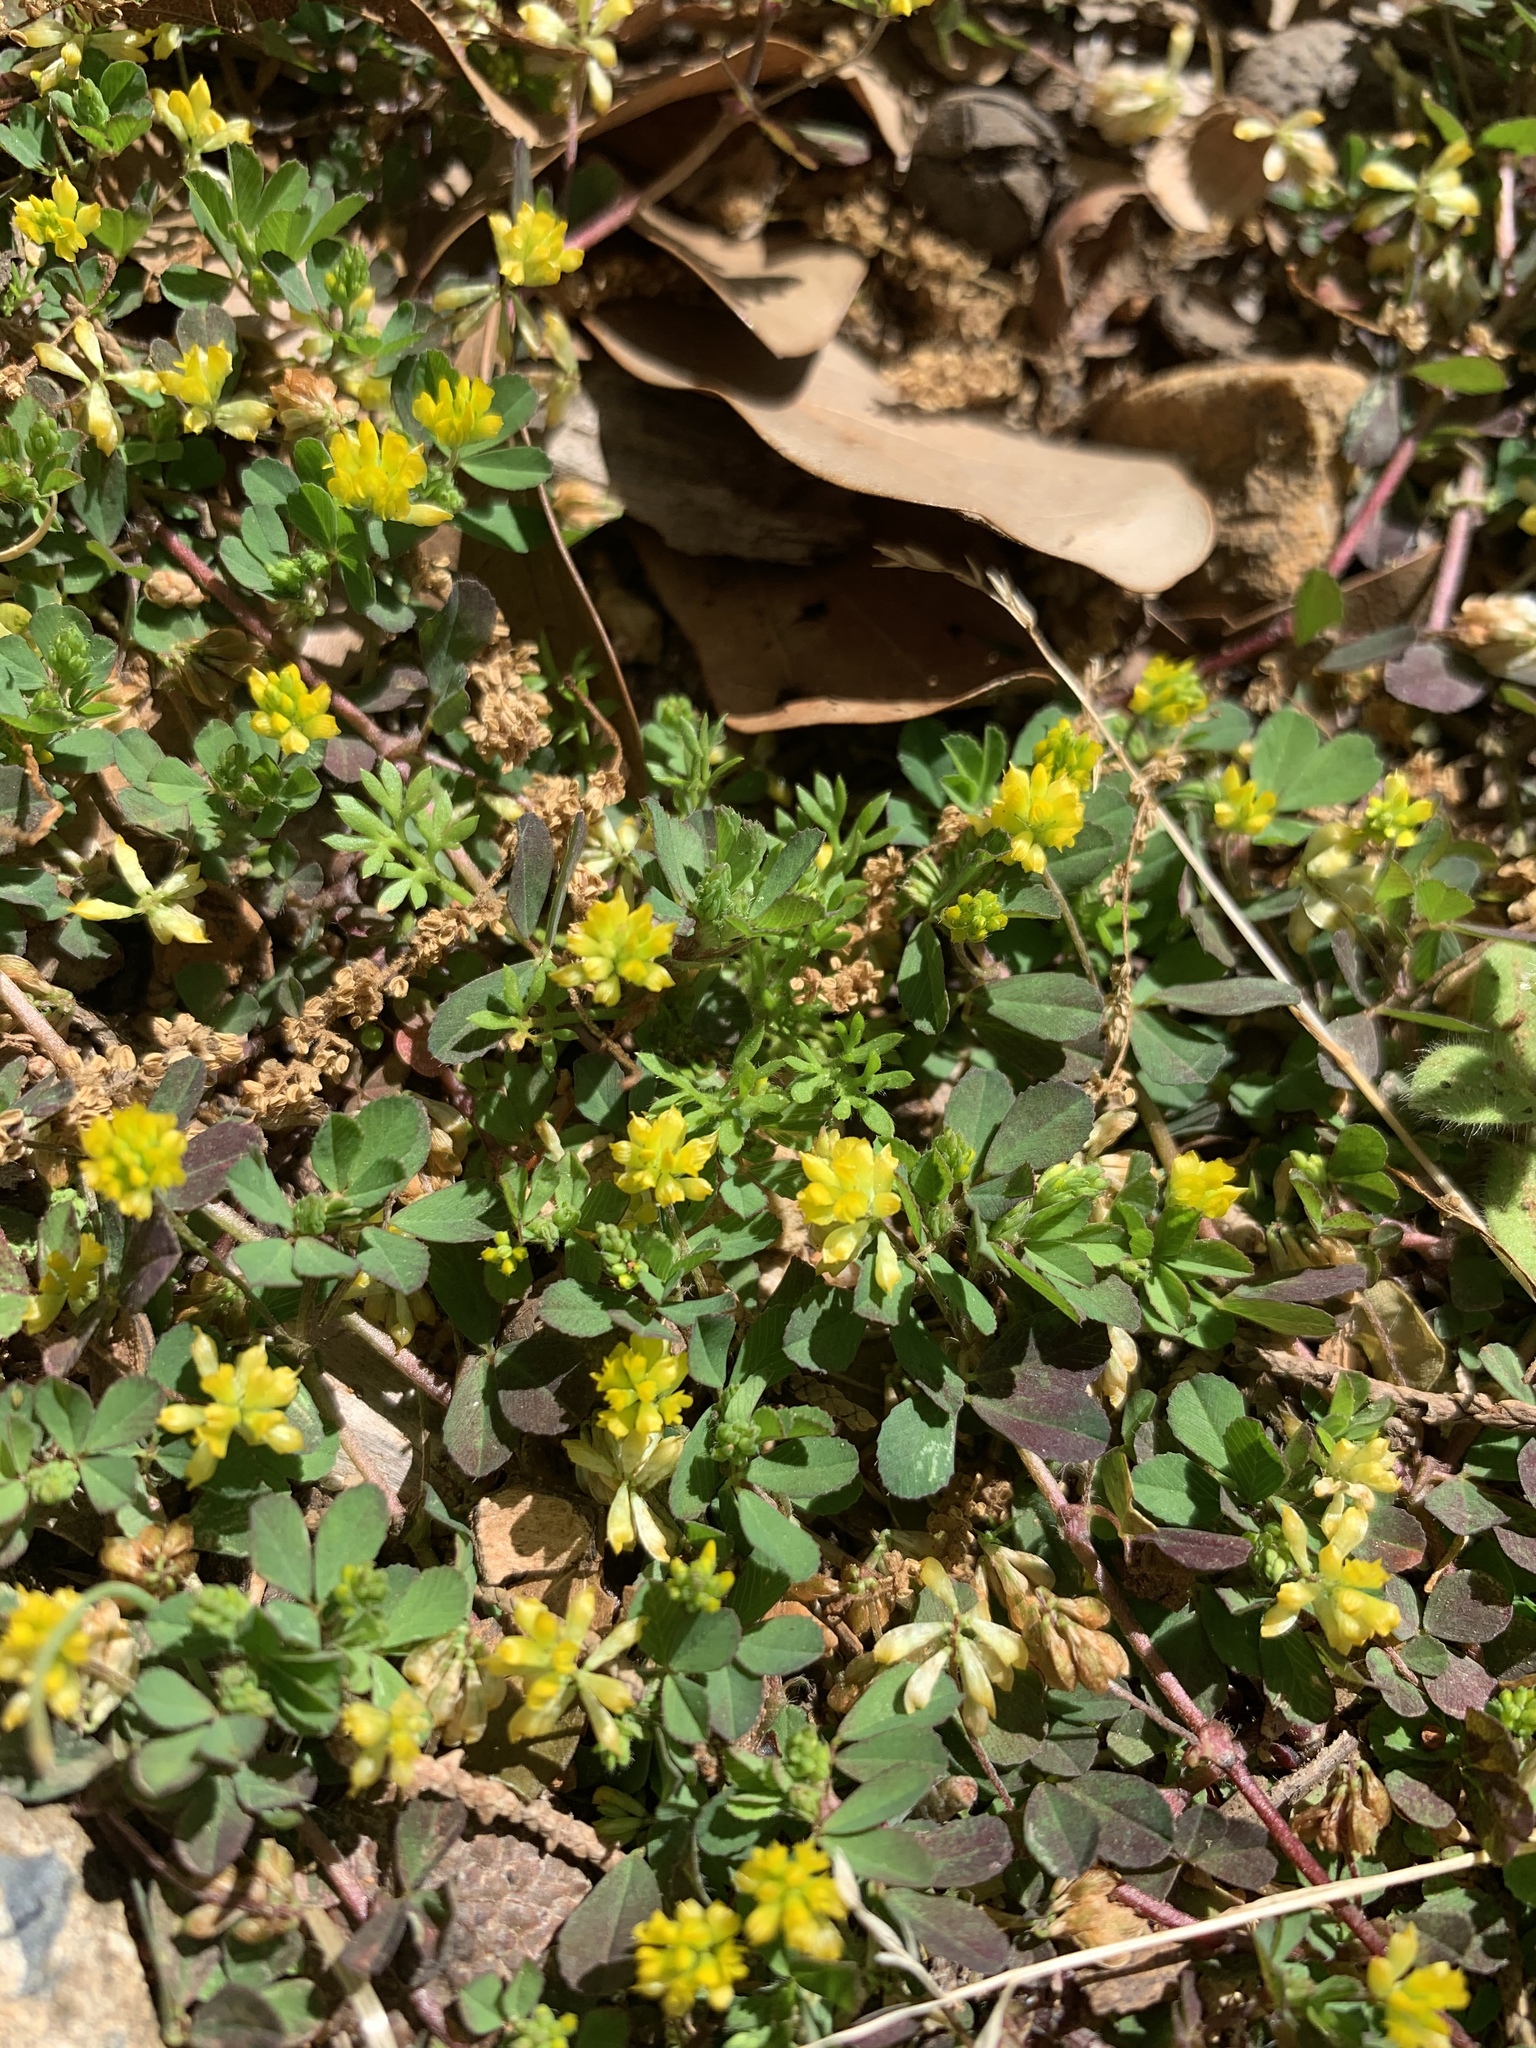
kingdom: Plantae
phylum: Tracheophyta
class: Magnoliopsida
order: Fabales
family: Fabaceae
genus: Trifolium
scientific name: Trifolium dubium
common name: Suckling clover
